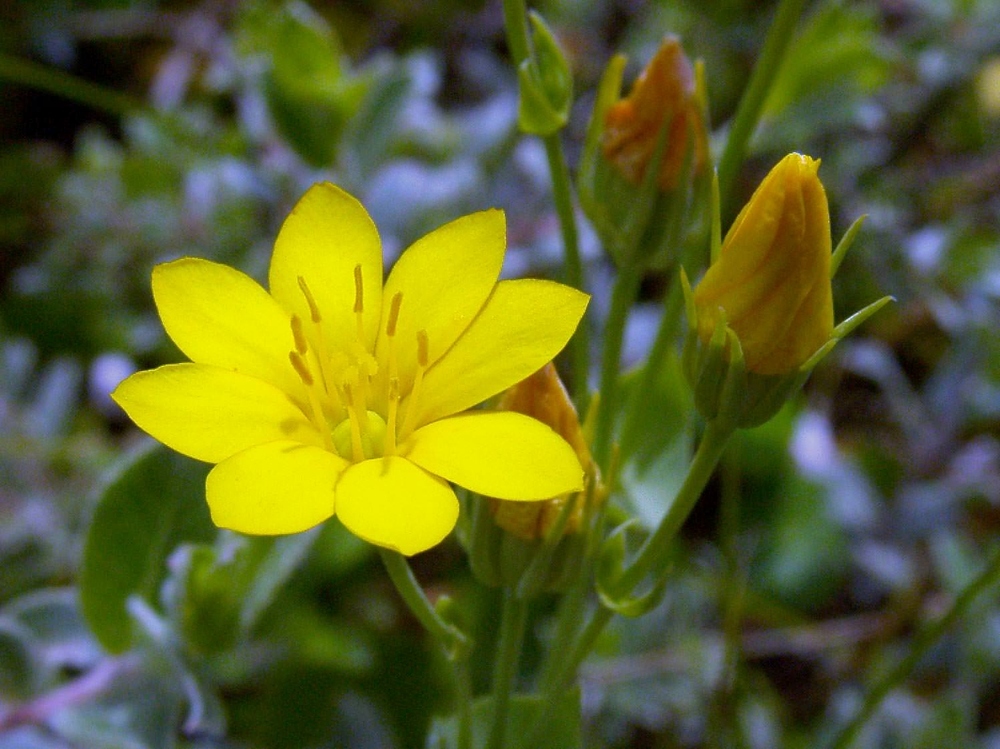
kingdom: Plantae
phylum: Tracheophyta
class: Magnoliopsida
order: Gentianales
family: Gentianaceae
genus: Blackstonia
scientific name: Blackstonia perfoliata
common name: Yellow-wort
